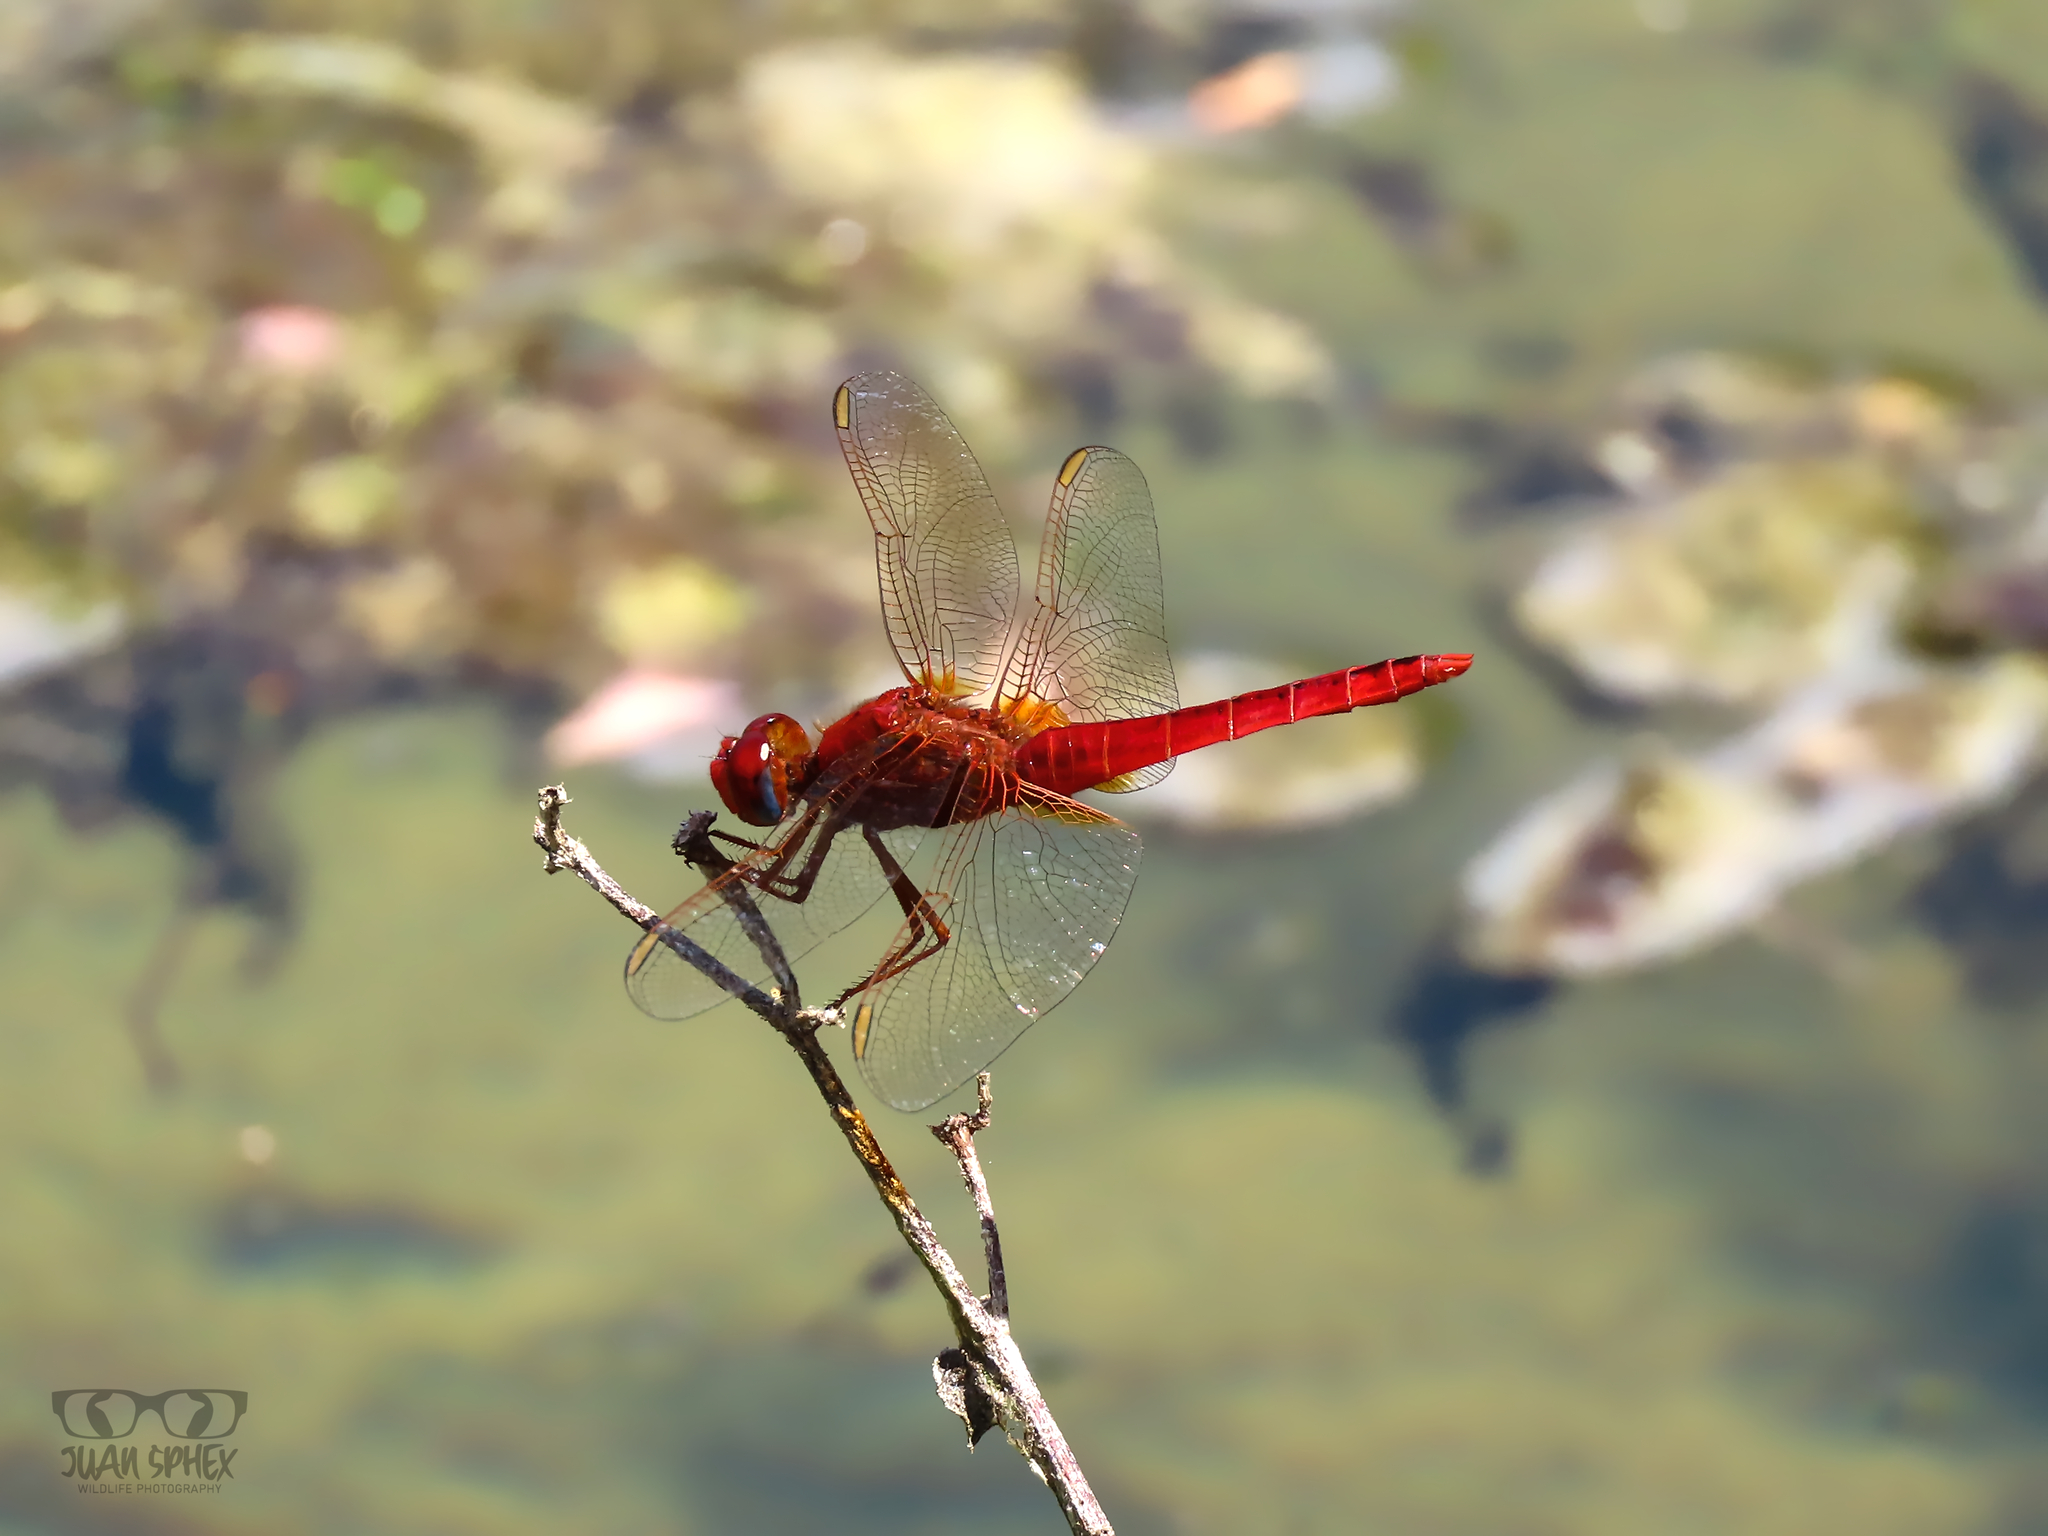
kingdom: Animalia
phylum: Arthropoda
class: Insecta
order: Odonata
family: Libellulidae
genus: Crocothemis
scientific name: Crocothemis erythraea
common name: Scarlet dragonfly
